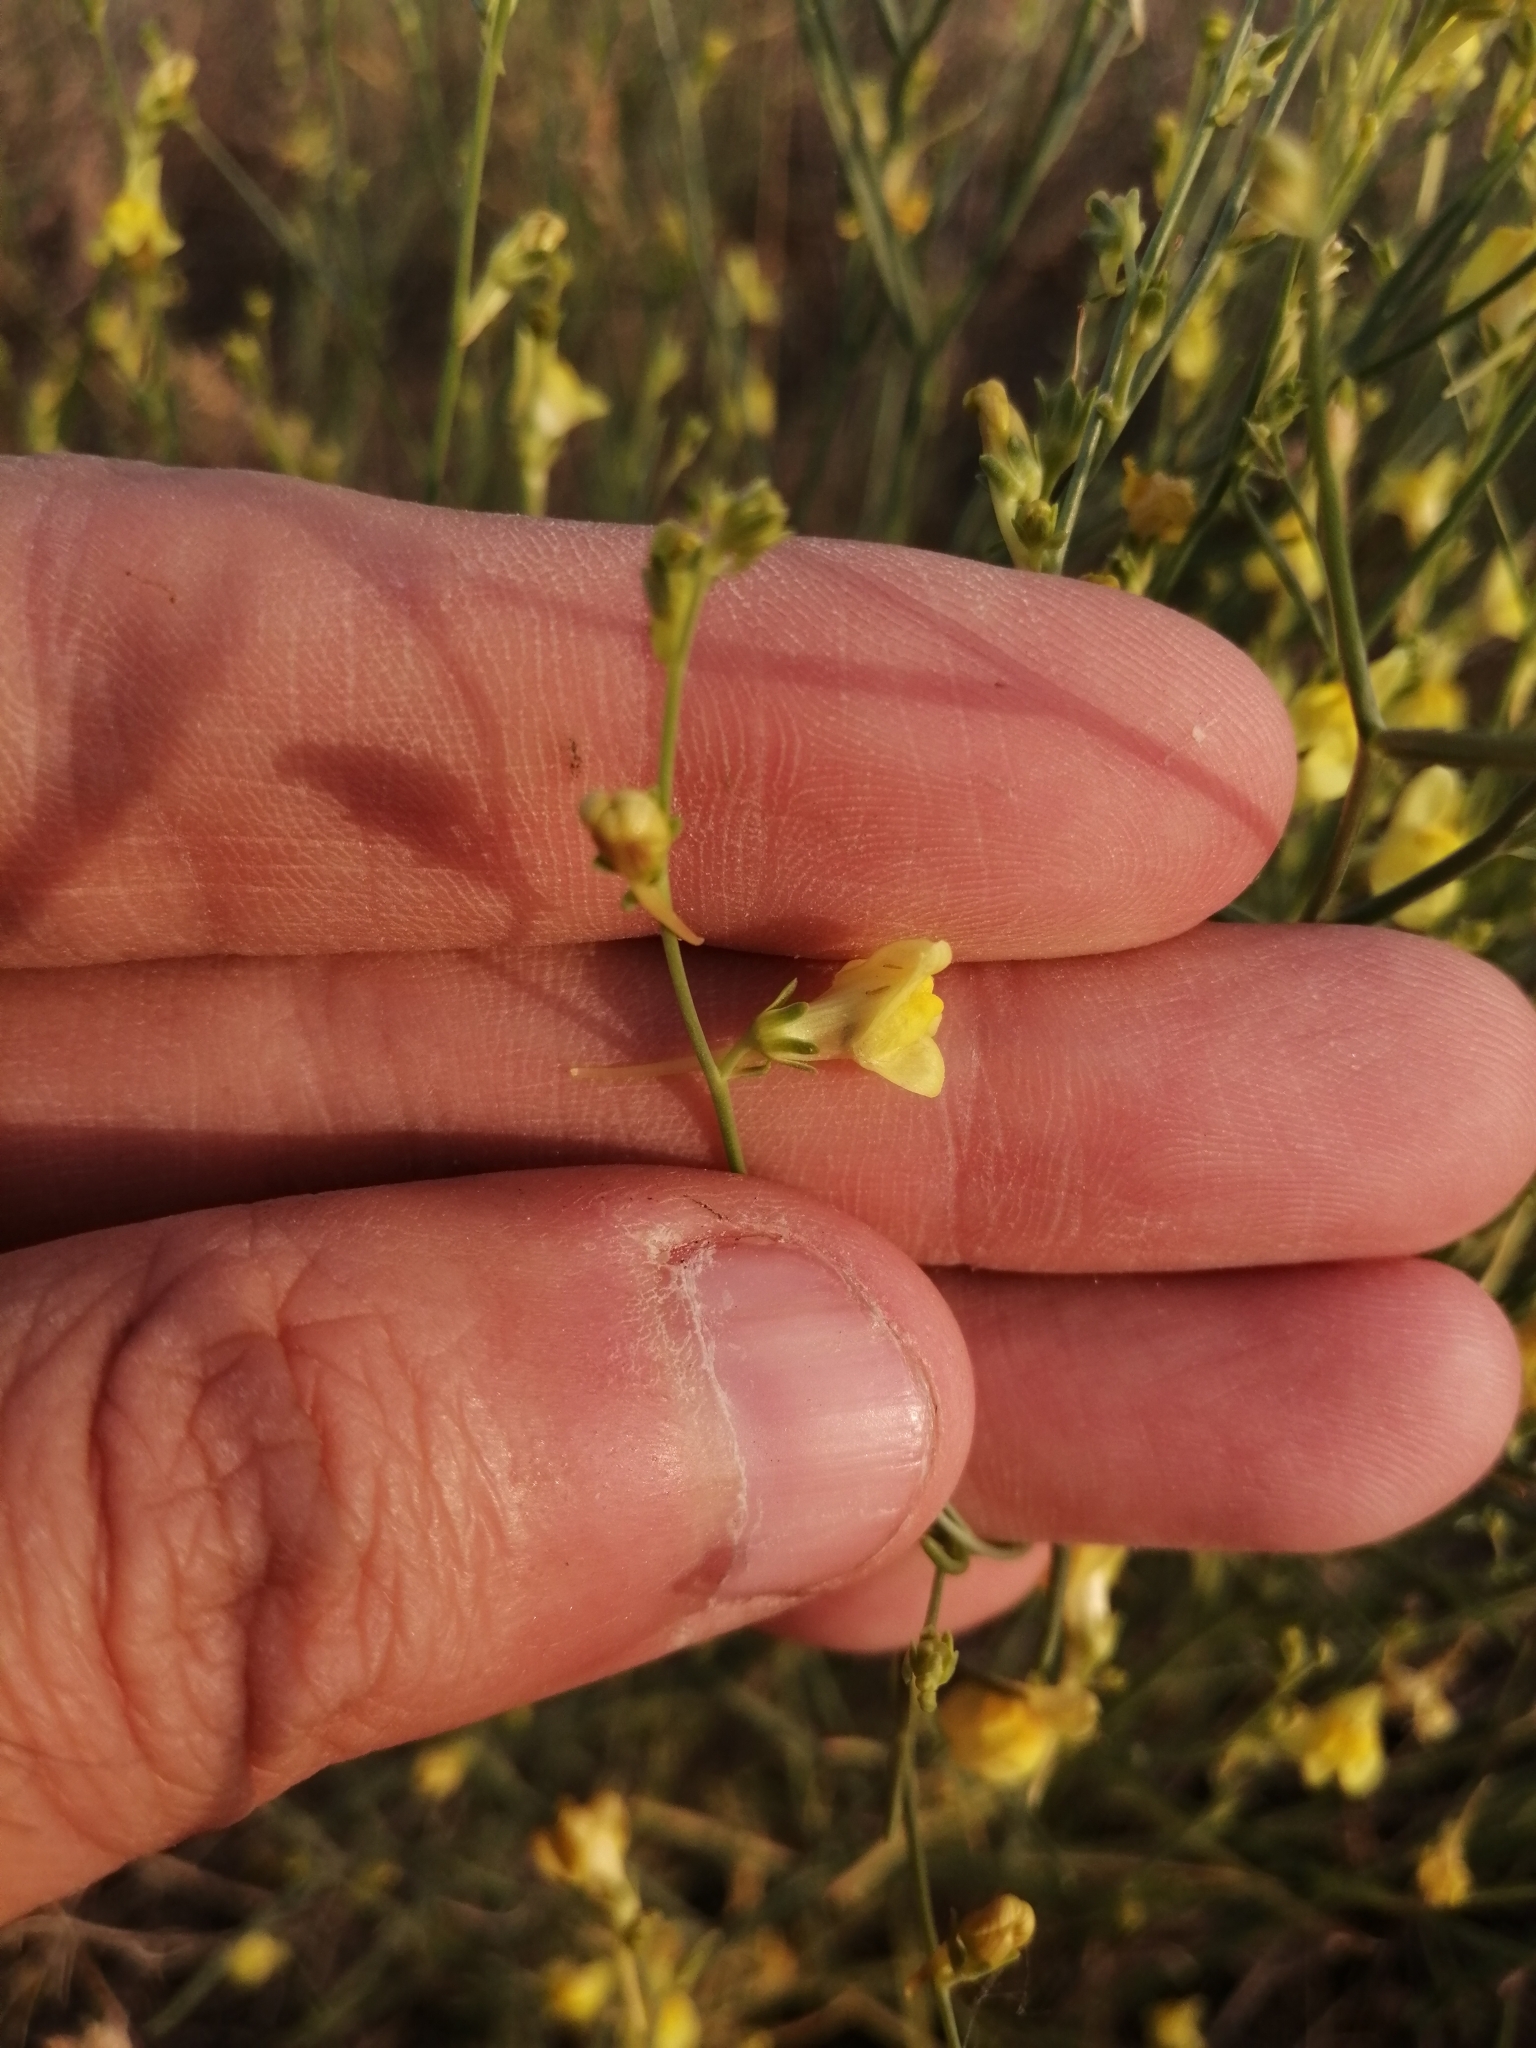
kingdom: Plantae
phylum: Tracheophyta
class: Magnoliopsida
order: Lamiales
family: Plantaginaceae
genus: Linaria
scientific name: Linaria odora
